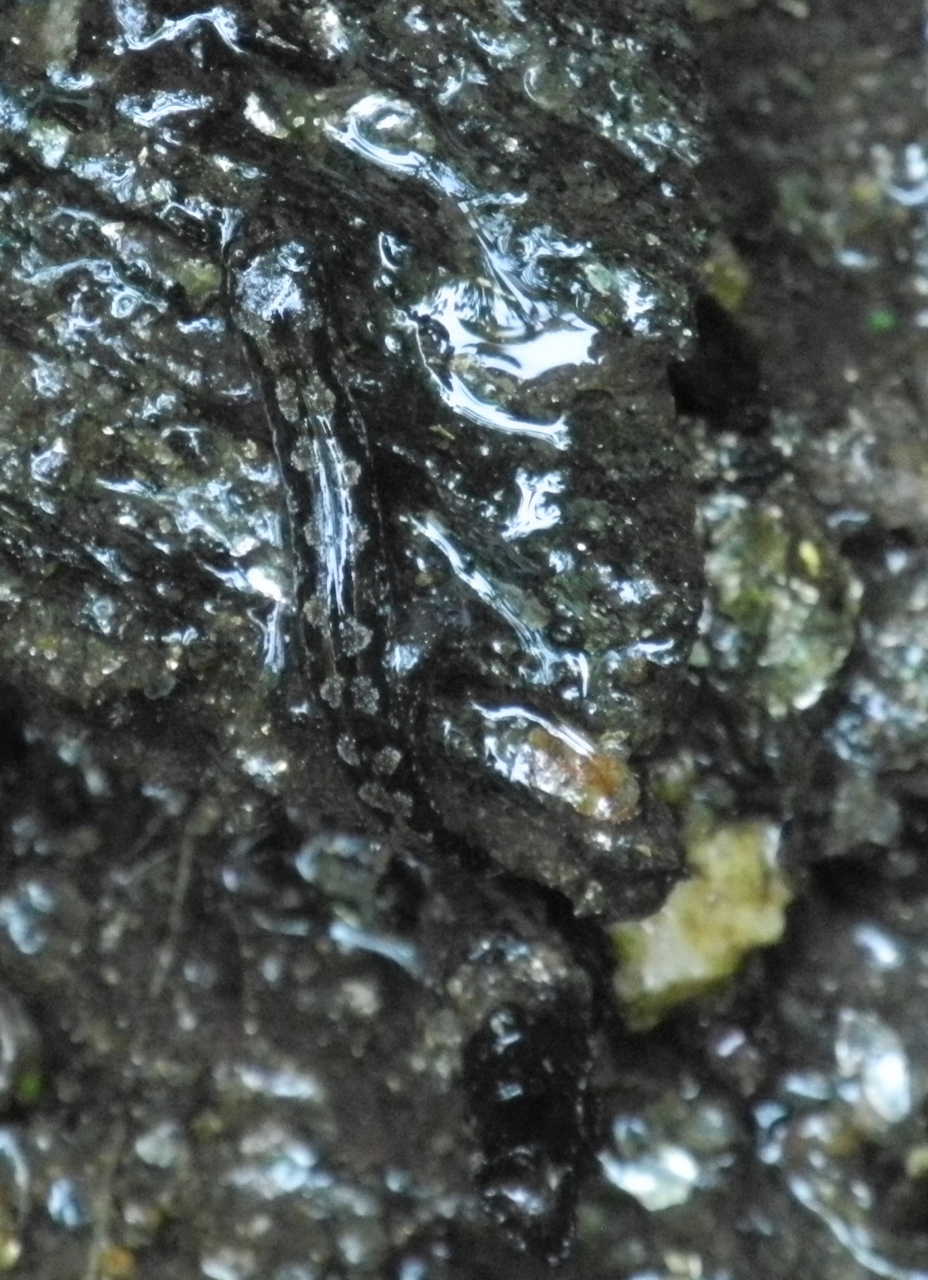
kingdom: Animalia
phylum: Chordata
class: Amphibia
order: Caudata
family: Plethodontidae
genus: Desmognathus
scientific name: Desmognathus ocoee
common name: Ocoee salamander
